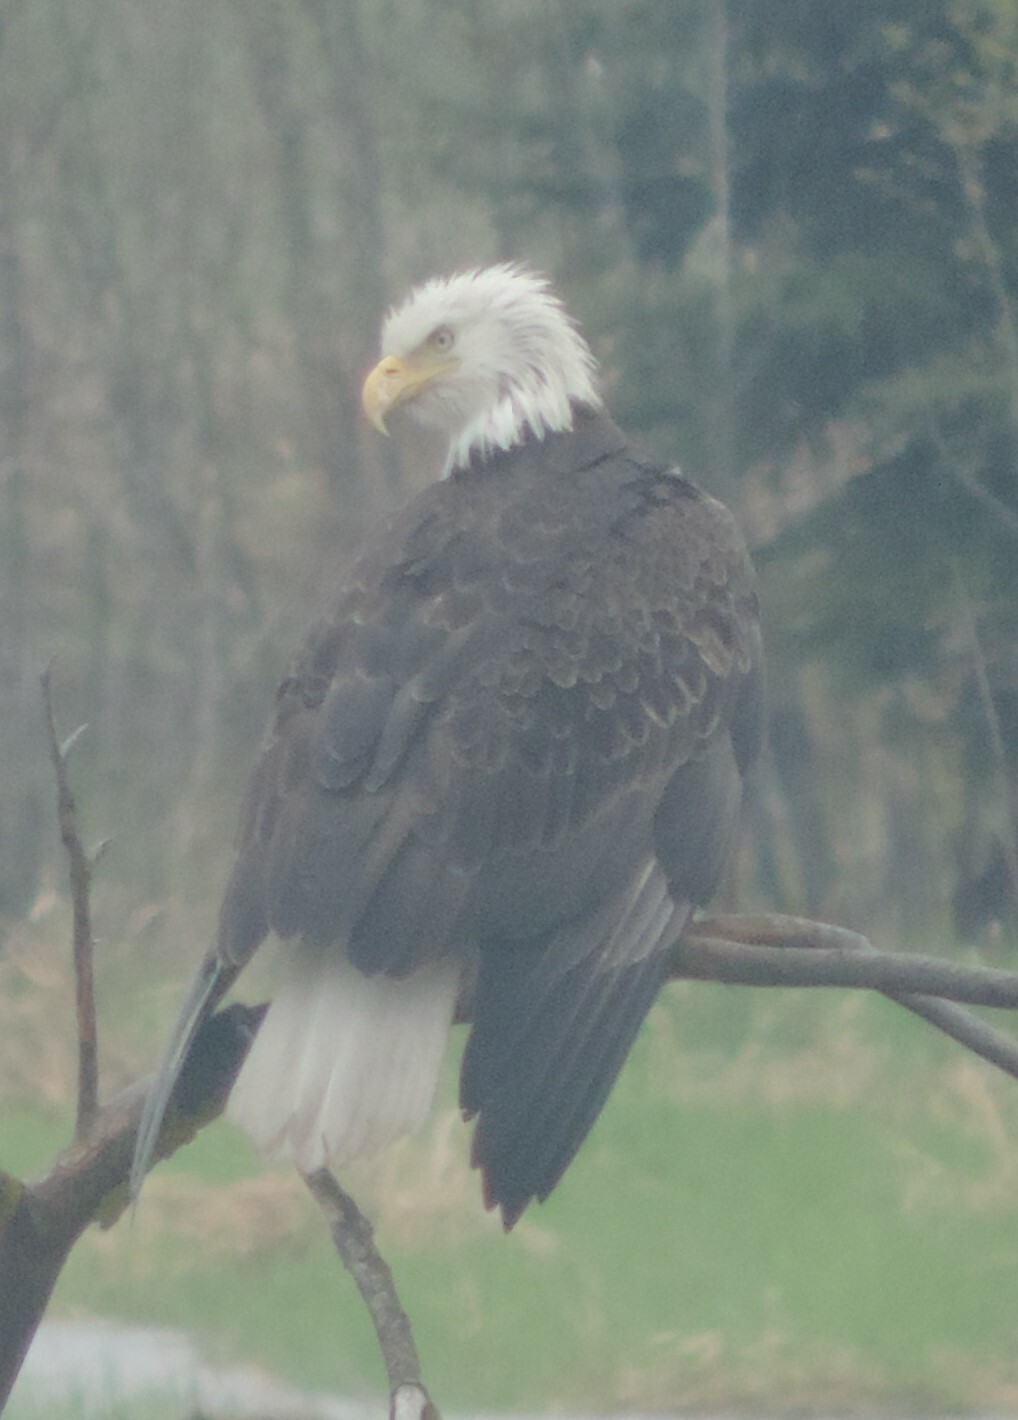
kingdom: Animalia
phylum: Chordata
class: Aves
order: Accipitriformes
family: Accipitridae
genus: Haliaeetus
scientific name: Haliaeetus leucocephalus
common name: Bald eagle
